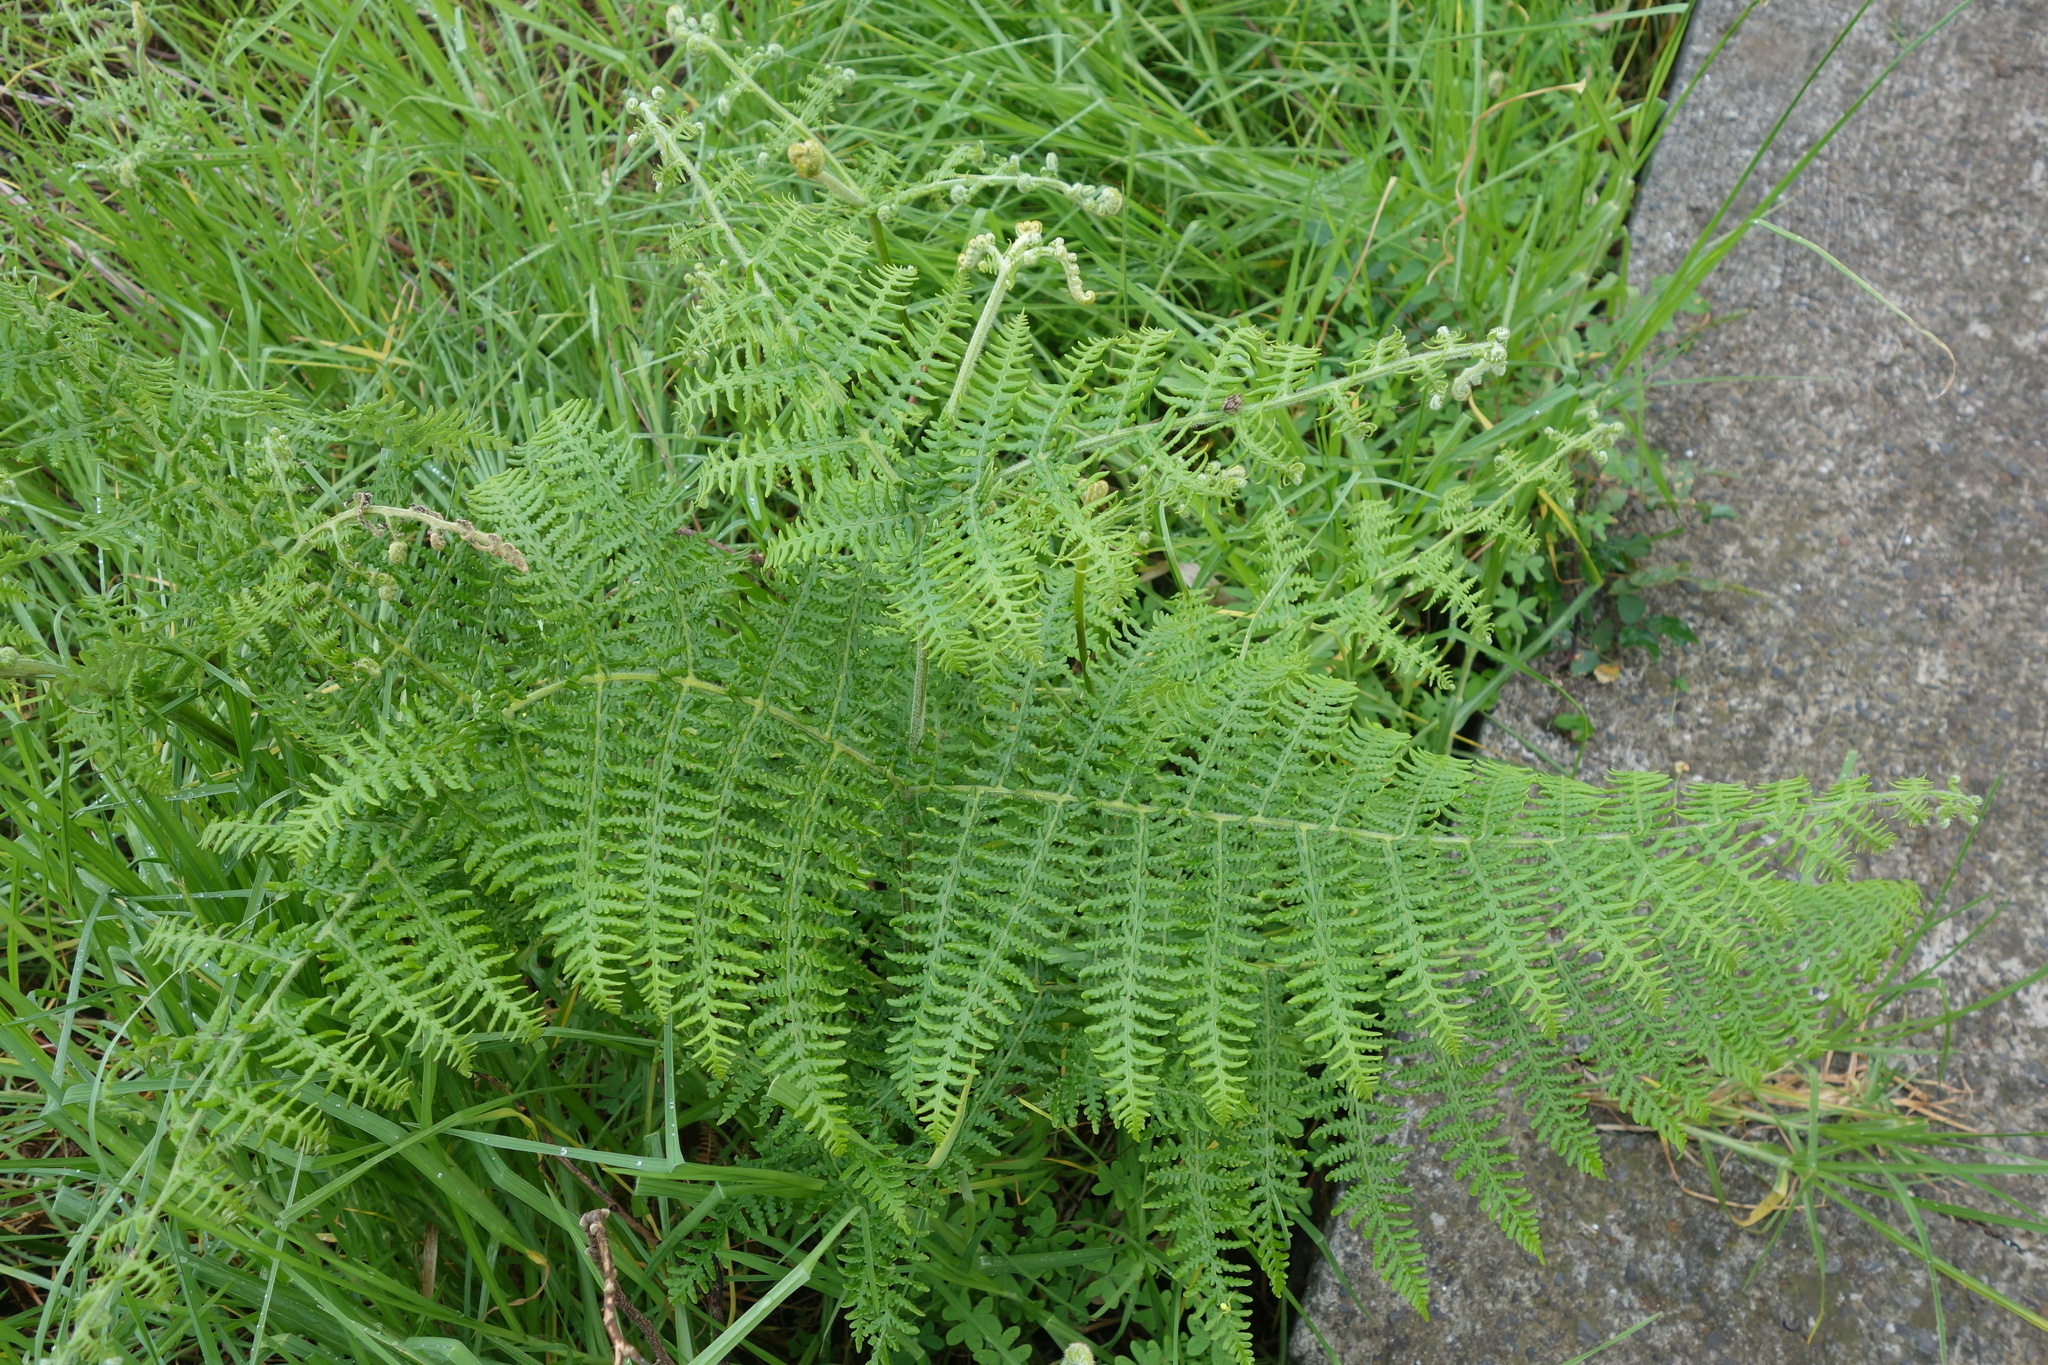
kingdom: Plantae
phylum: Tracheophyta
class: Polypodiopsida
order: Polypodiales
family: Dennstaedtiaceae
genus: Pteridium
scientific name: Pteridium aquilinum
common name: Bracken
